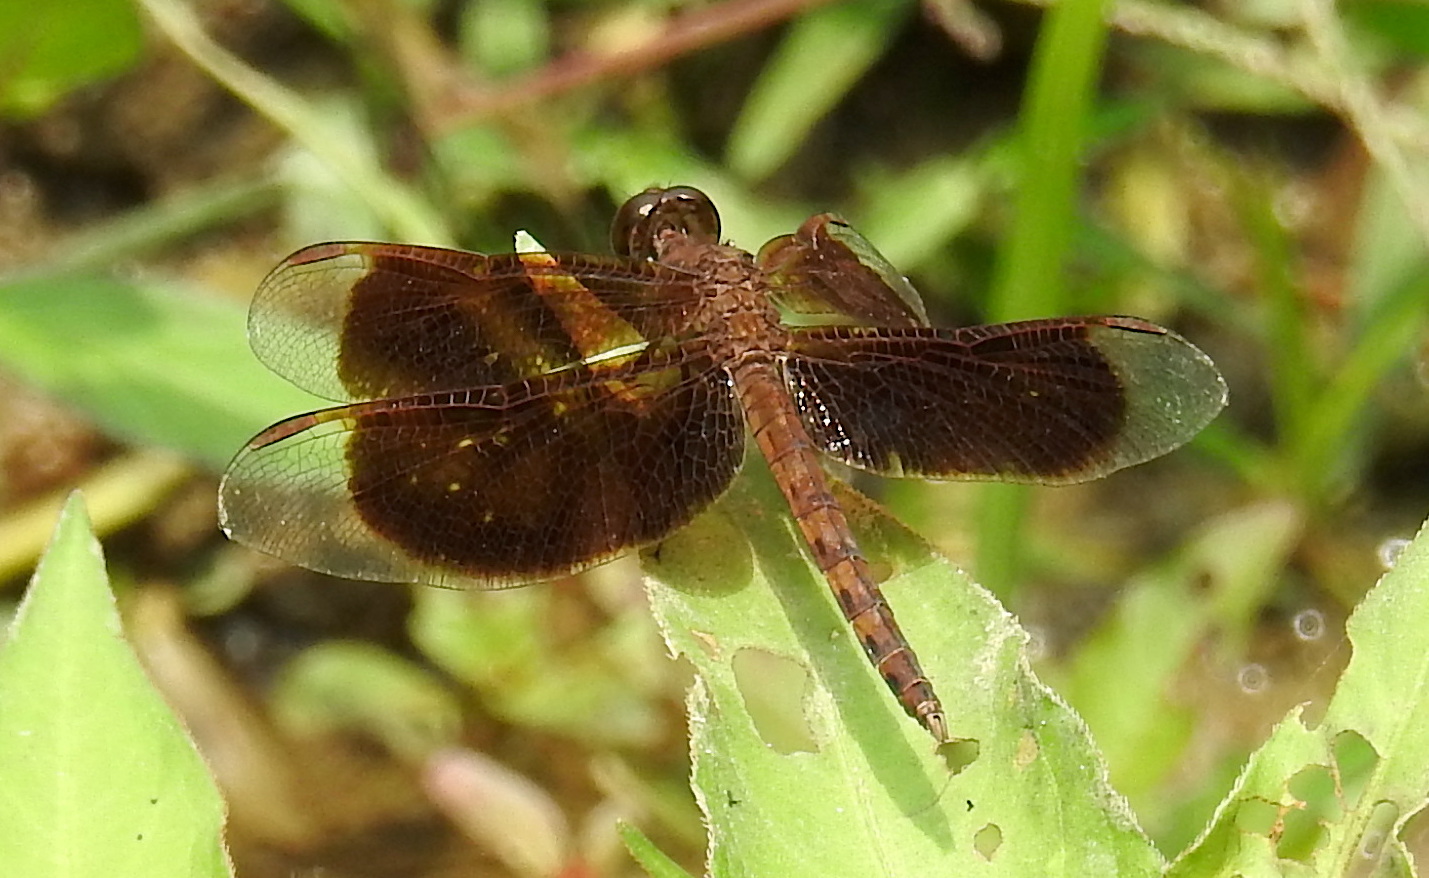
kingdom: Animalia
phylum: Arthropoda
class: Insecta
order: Odonata
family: Libellulidae
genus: Neurothemis
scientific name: Neurothemis fluctuans
